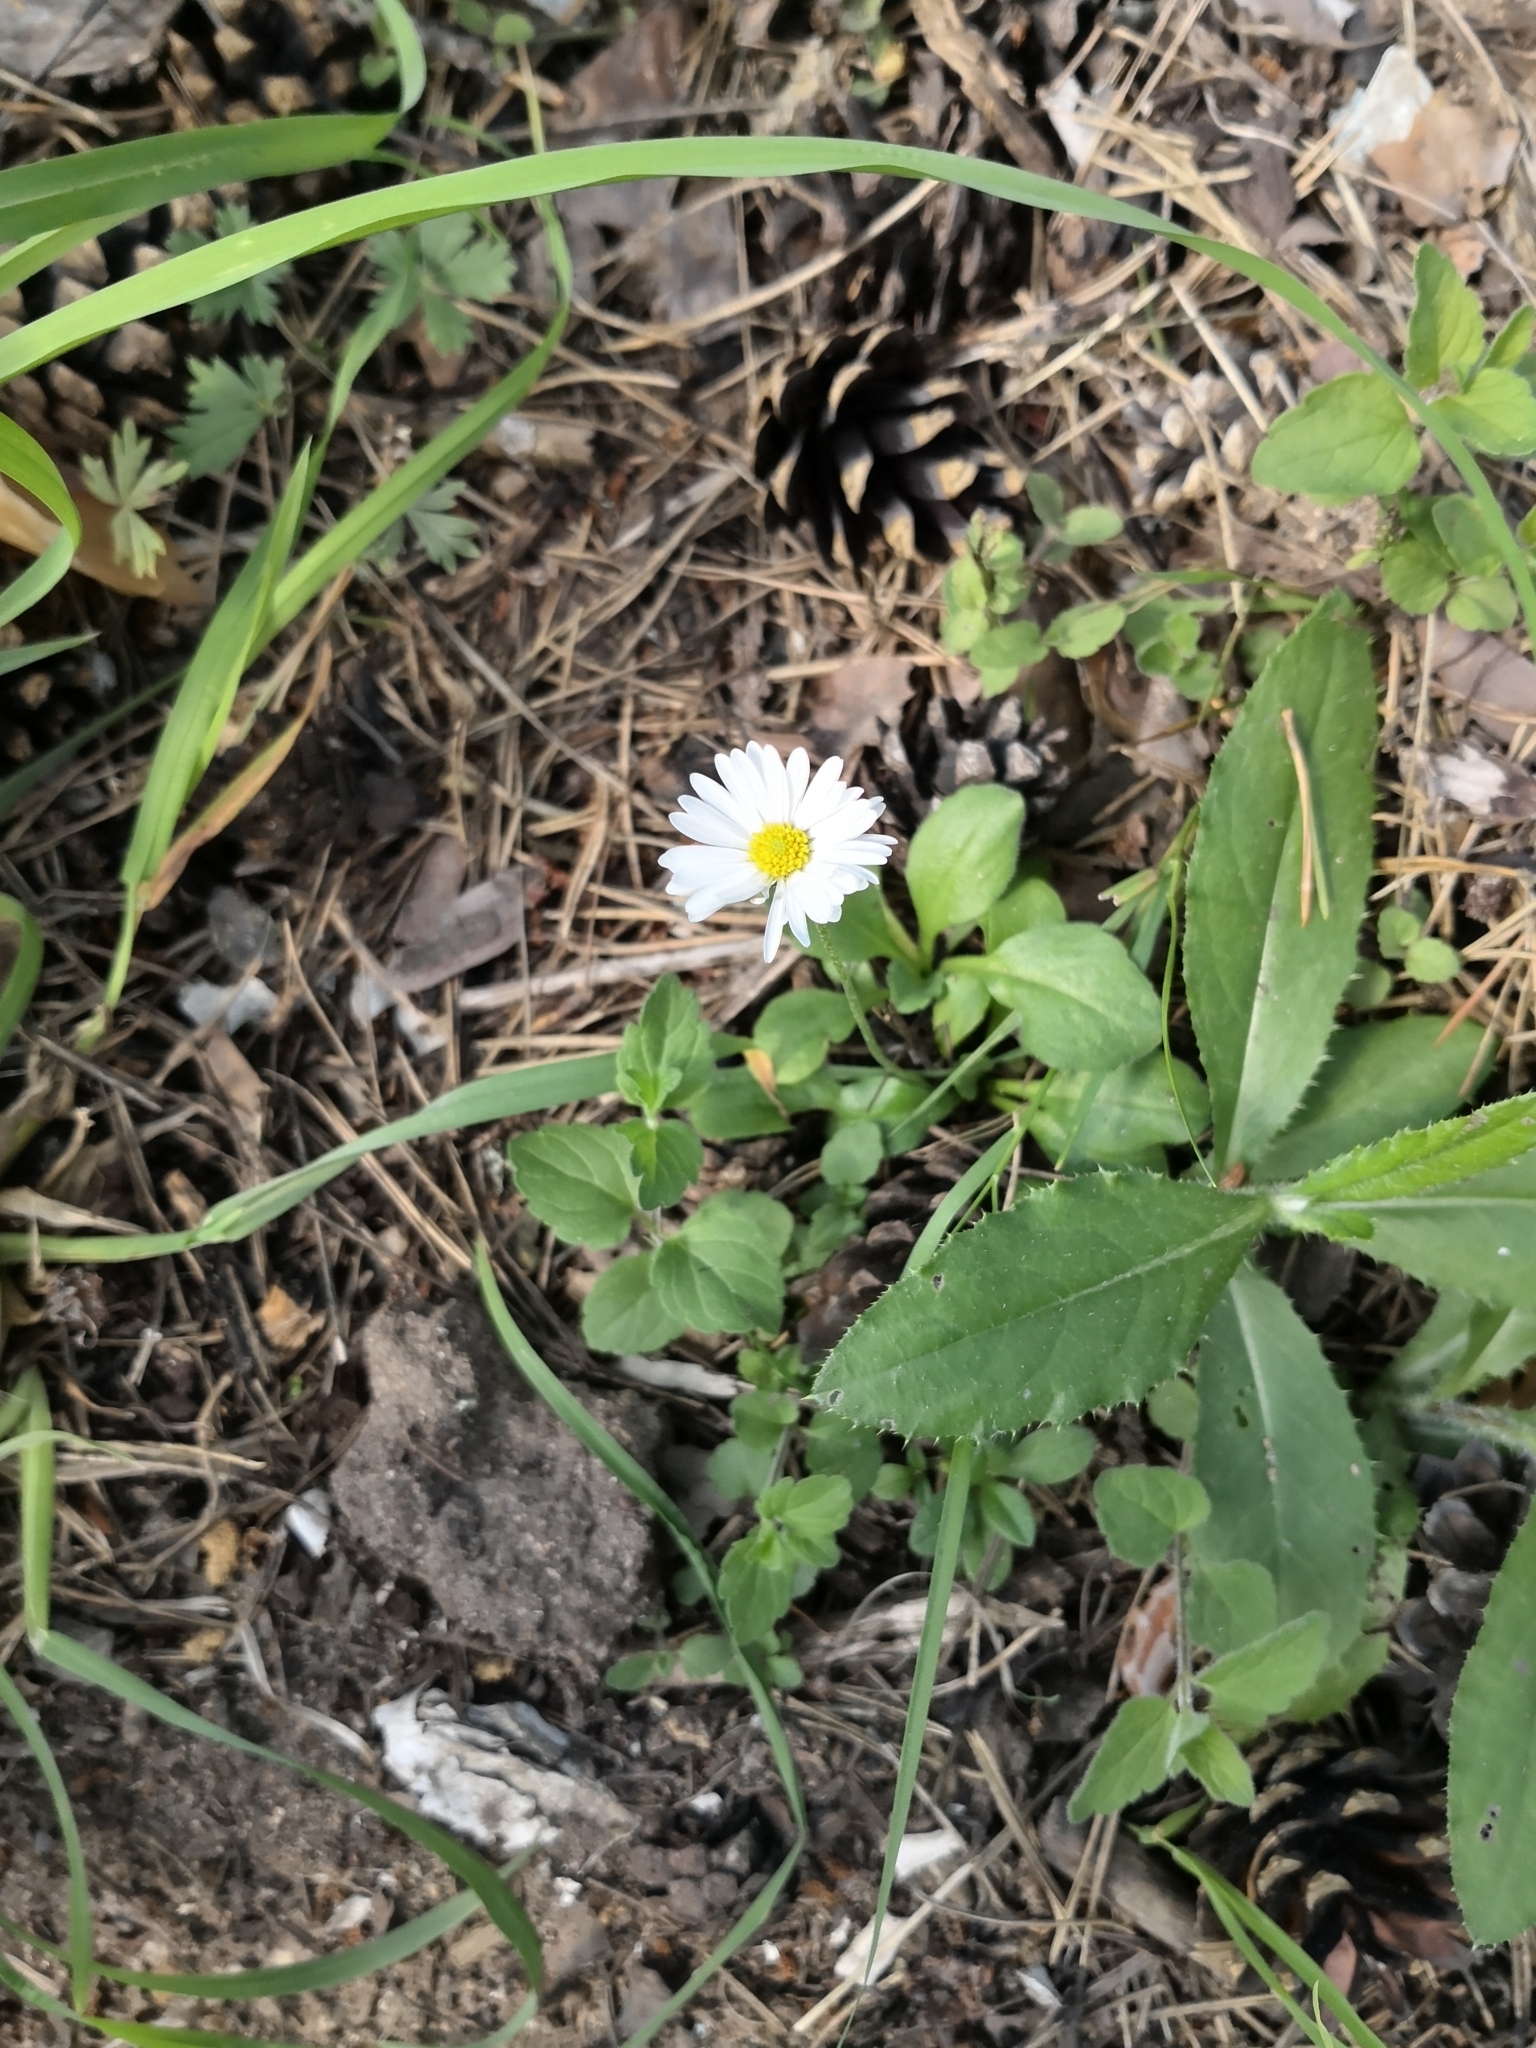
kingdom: Plantae
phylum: Tracheophyta
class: Magnoliopsida
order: Asterales
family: Asteraceae
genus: Bellis
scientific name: Bellis perennis
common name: Lawndaisy
